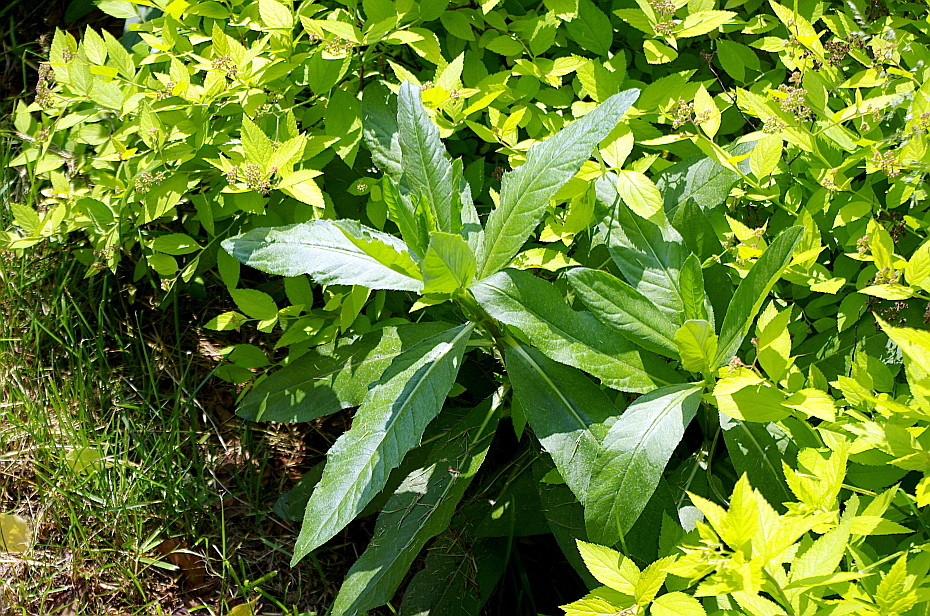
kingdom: Plantae
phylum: Tracheophyta
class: Magnoliopsida
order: Asterales
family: Asteraceae
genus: Cirsium
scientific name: Cirsium arvense
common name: Creeping thistle
